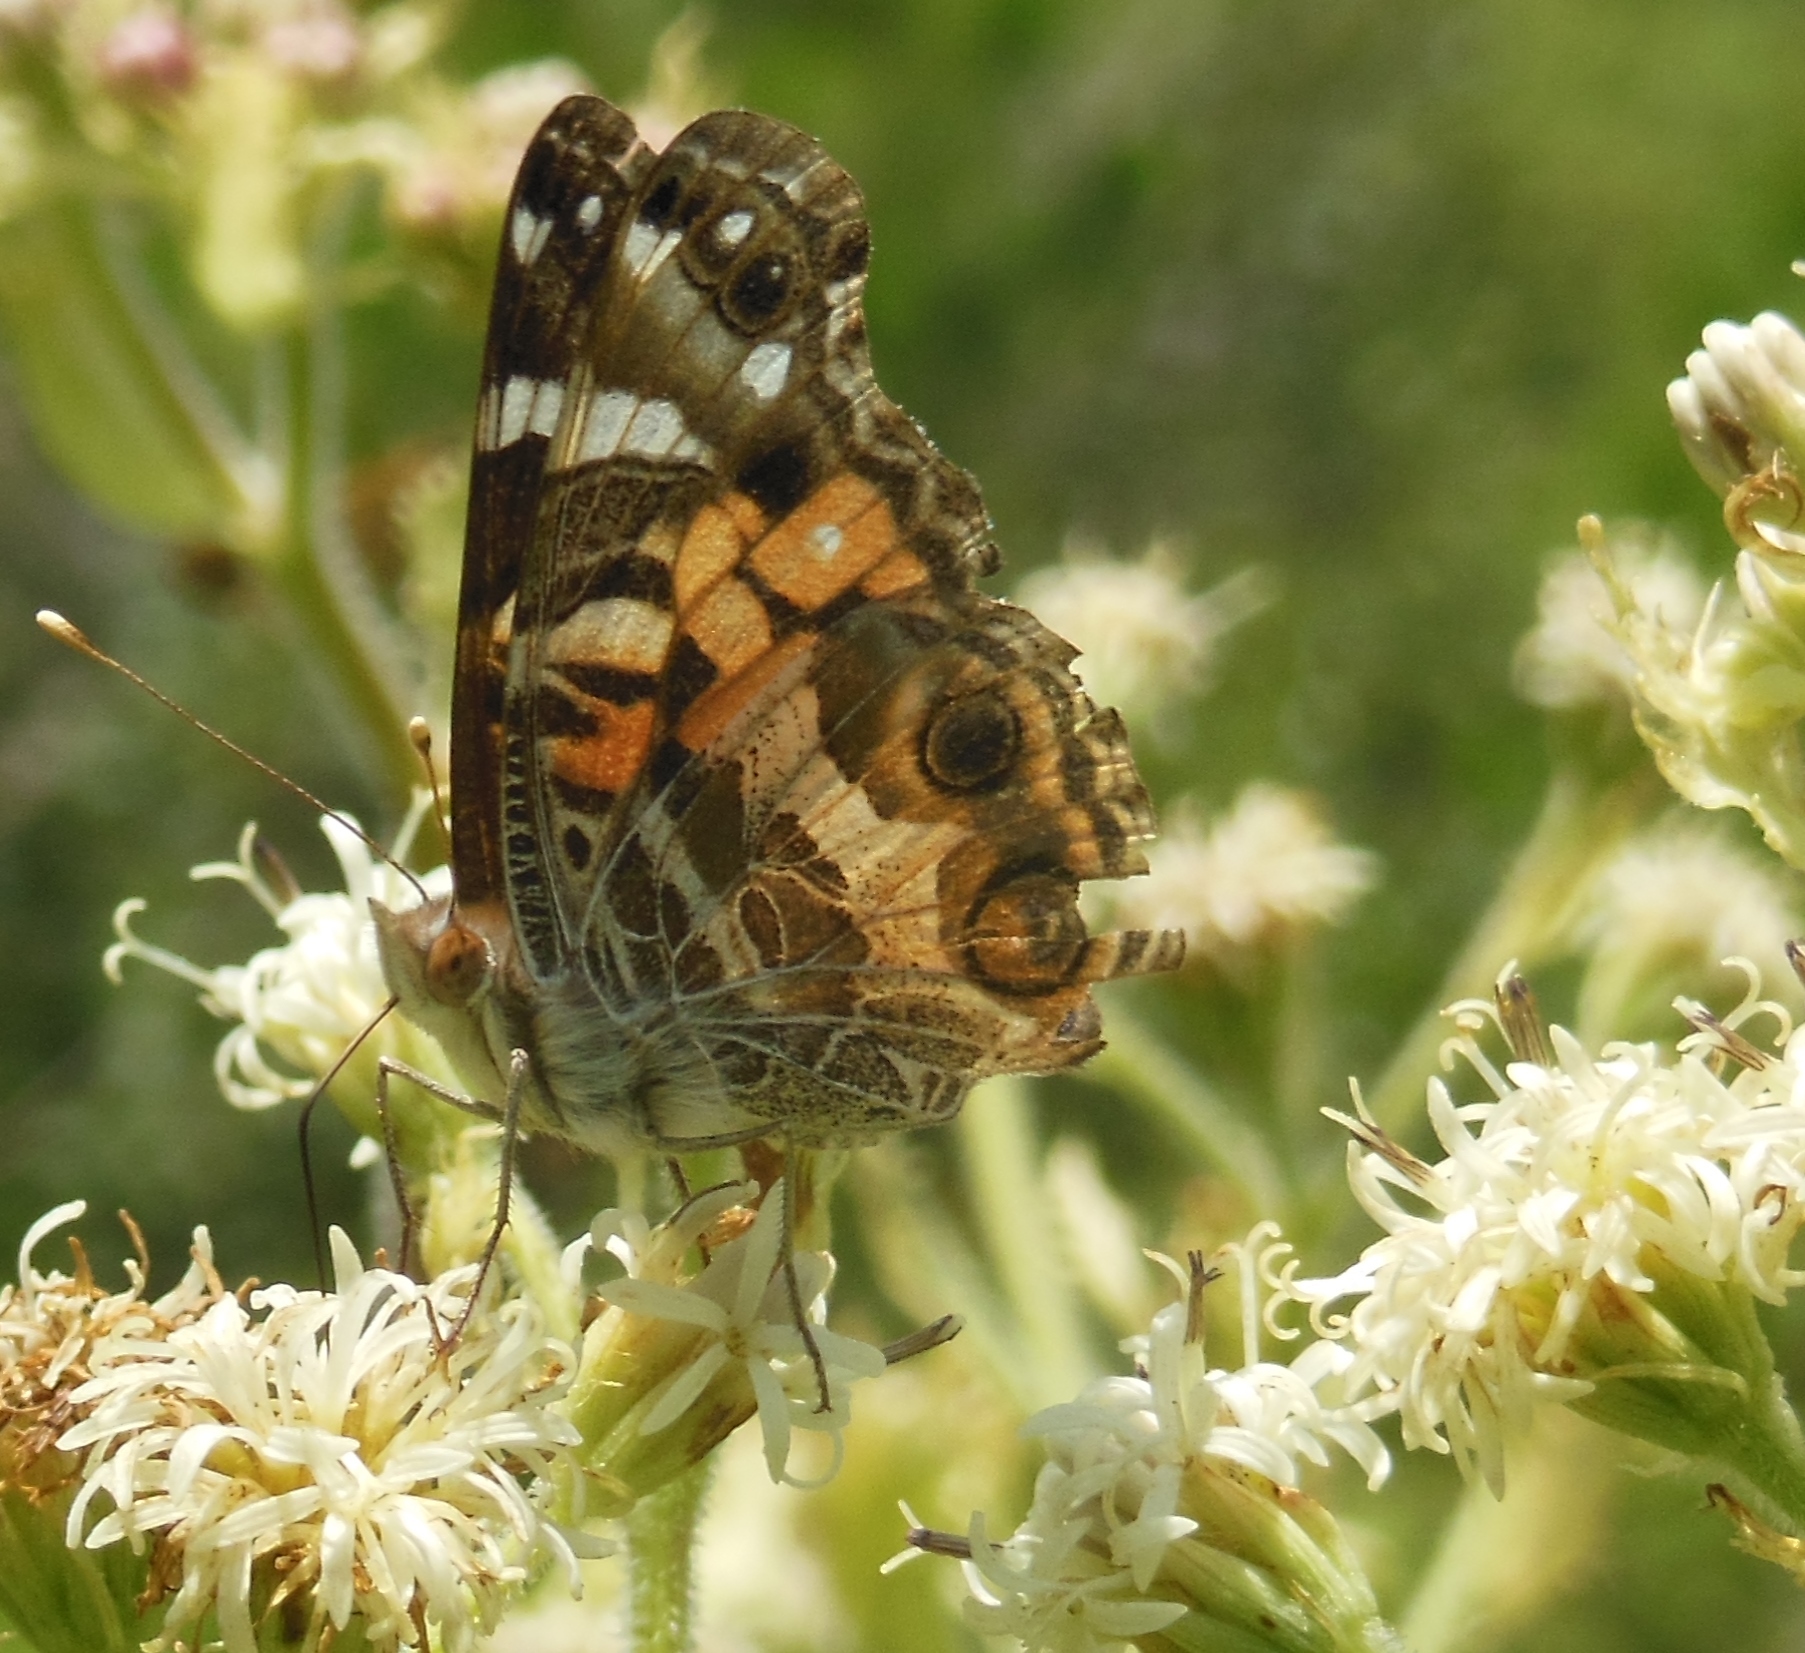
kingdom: Animalia
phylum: Arthropoda
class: Insecta
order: Lepidoptera
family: Nymphalidae
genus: Vanessa
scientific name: Vanessa virginiensis
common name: American lady
